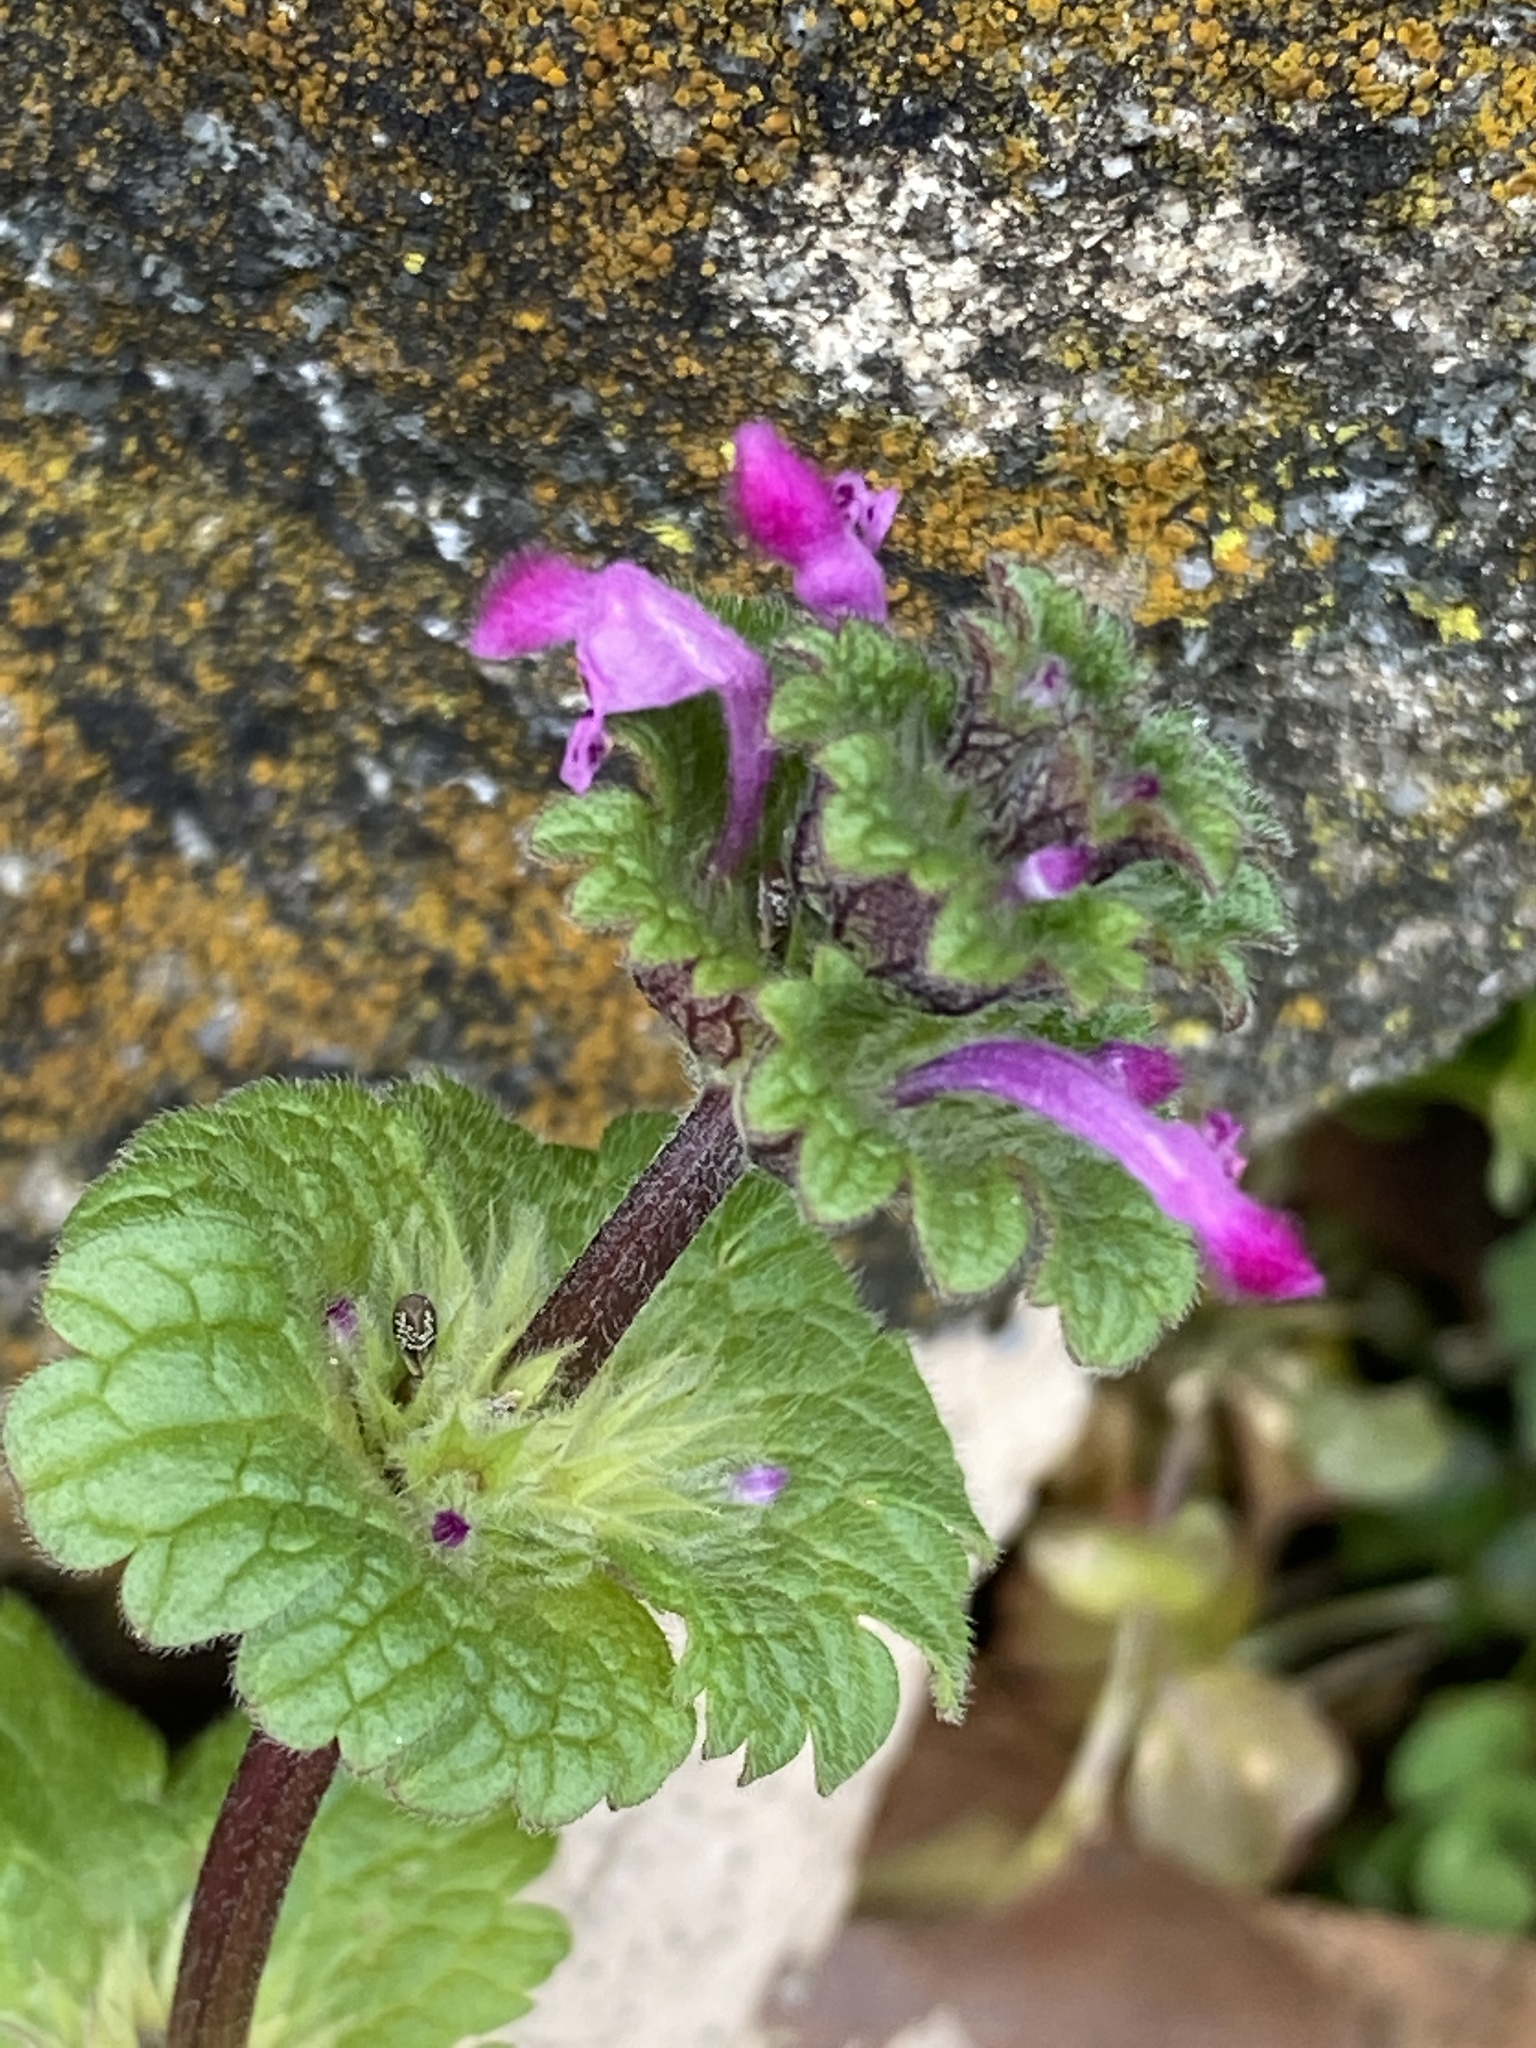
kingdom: Plantae
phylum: Tracheophyta
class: Magnoliopsida
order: Lamiales
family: Lamiaceae
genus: Lamium
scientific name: Lamium amplexicaule
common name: Henbit dead-nettle
